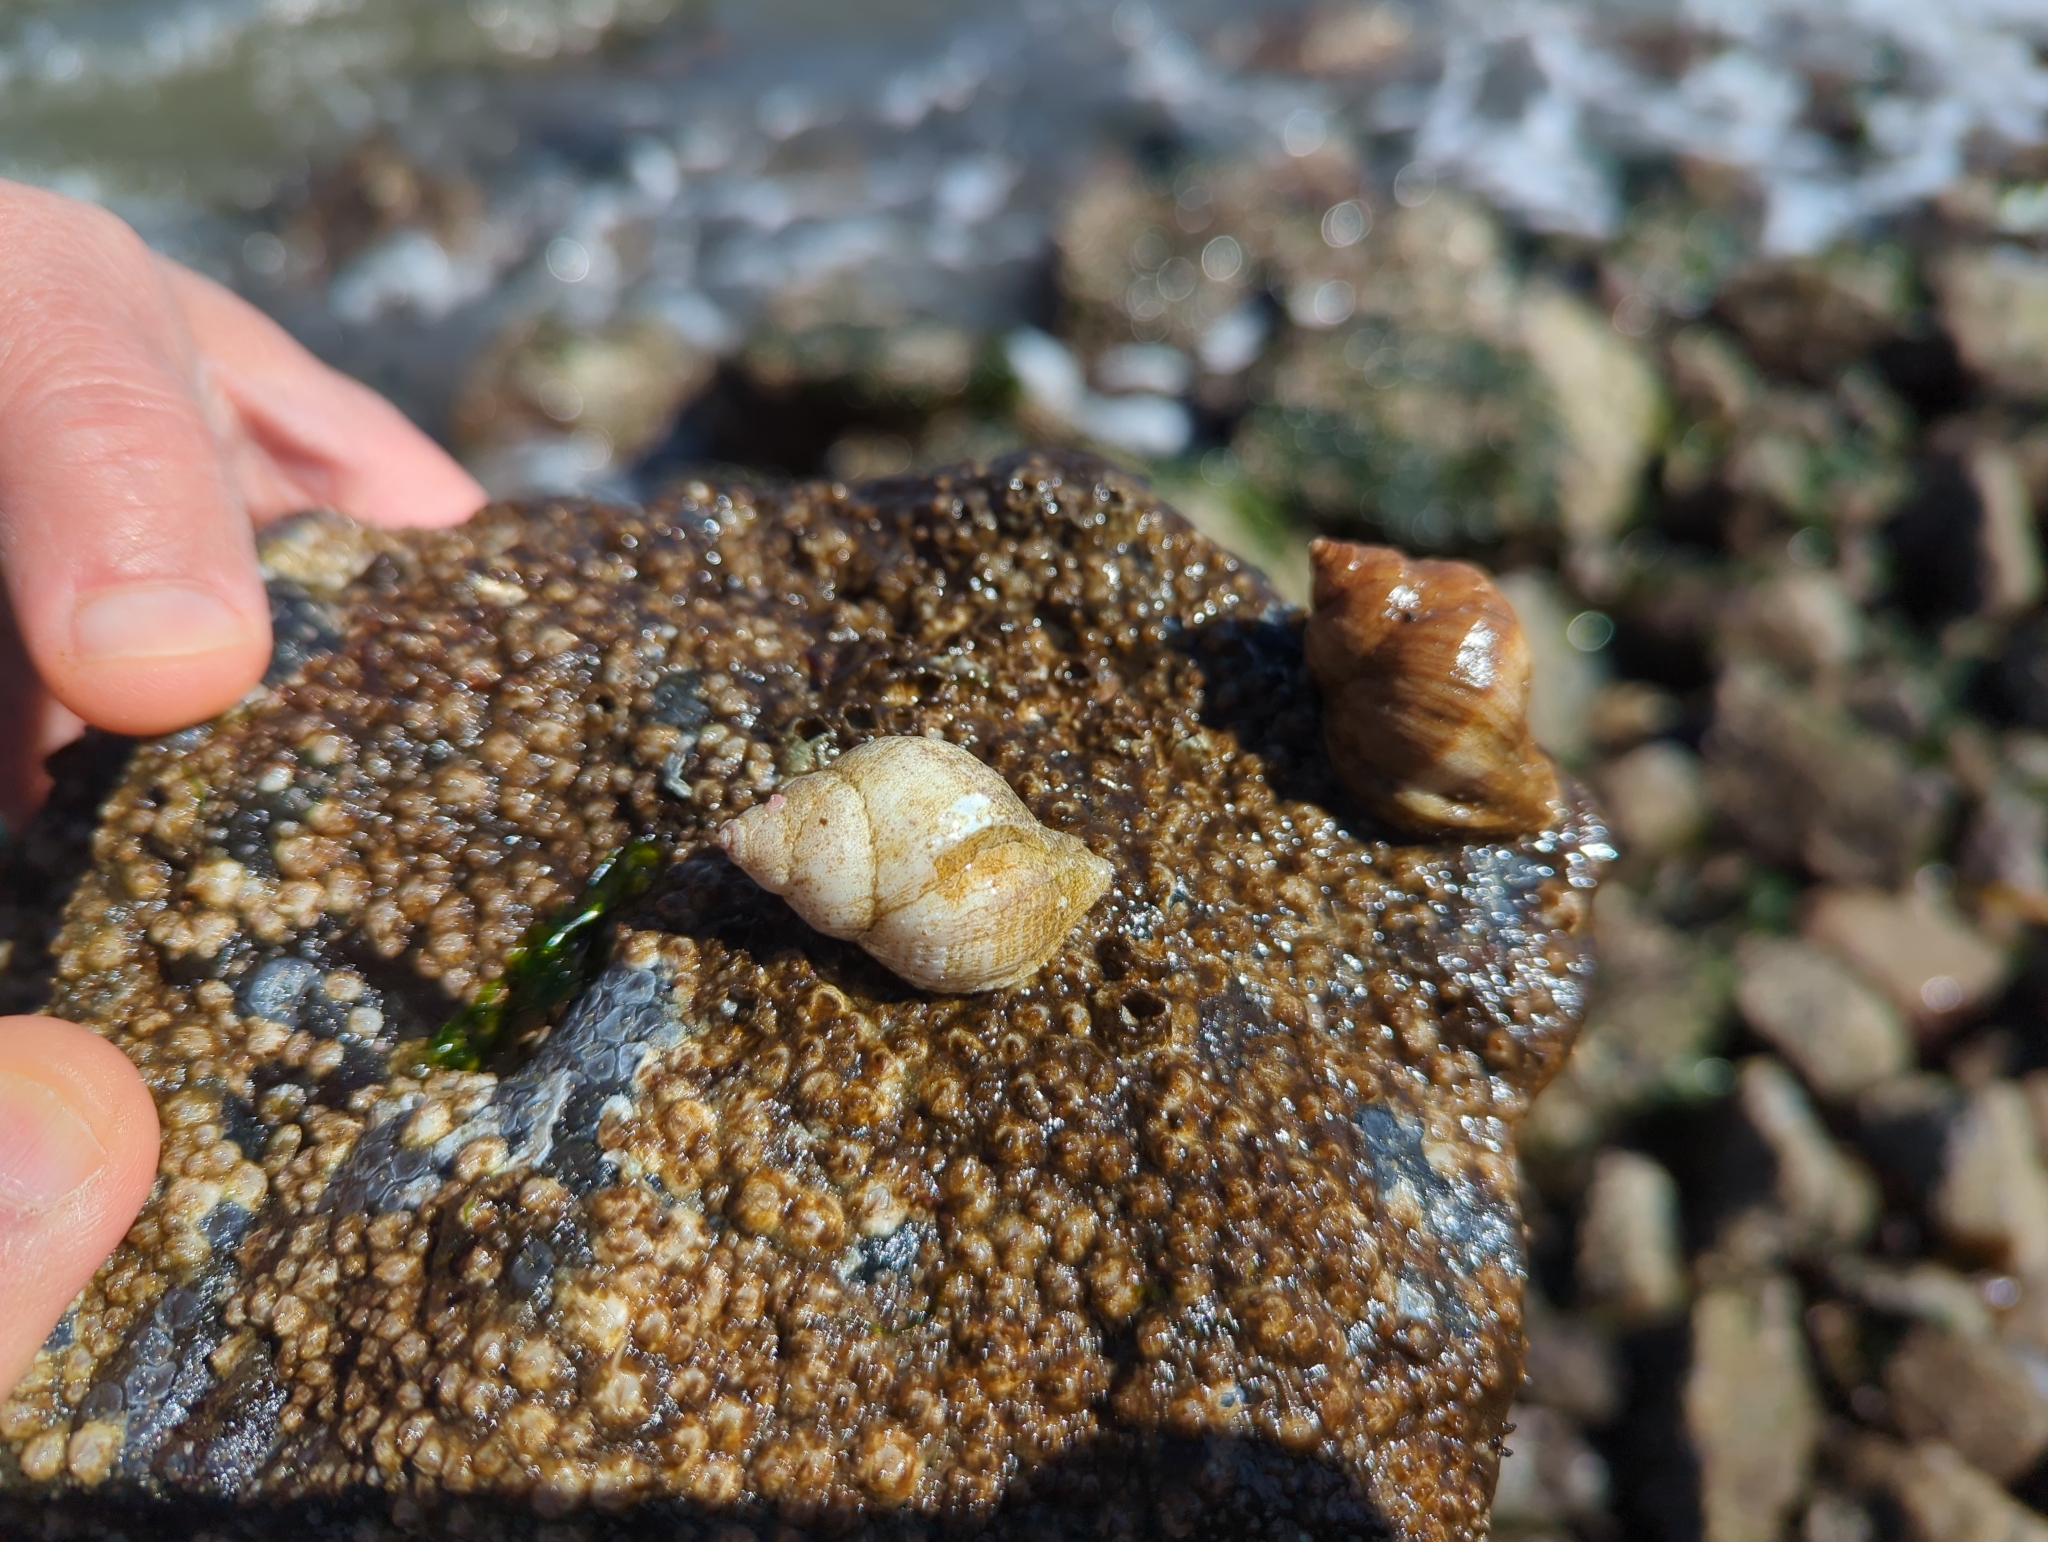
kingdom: Animalia
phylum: Mollusca
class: Gastropoda
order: Neogastropoda
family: Muricidae
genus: Nucella
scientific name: Nucella lamellosa
